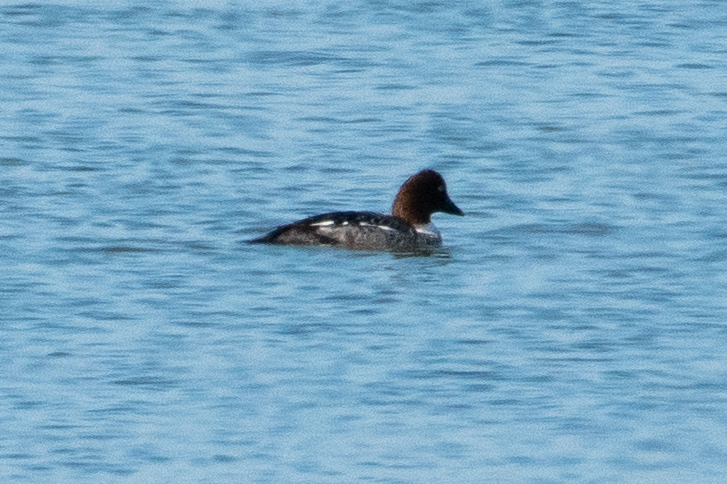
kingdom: Animalia
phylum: Chordata
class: Aves
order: Anseriformes
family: Anatidae
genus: Bucephala
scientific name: Bucephala clangula
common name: Common goldeneye
